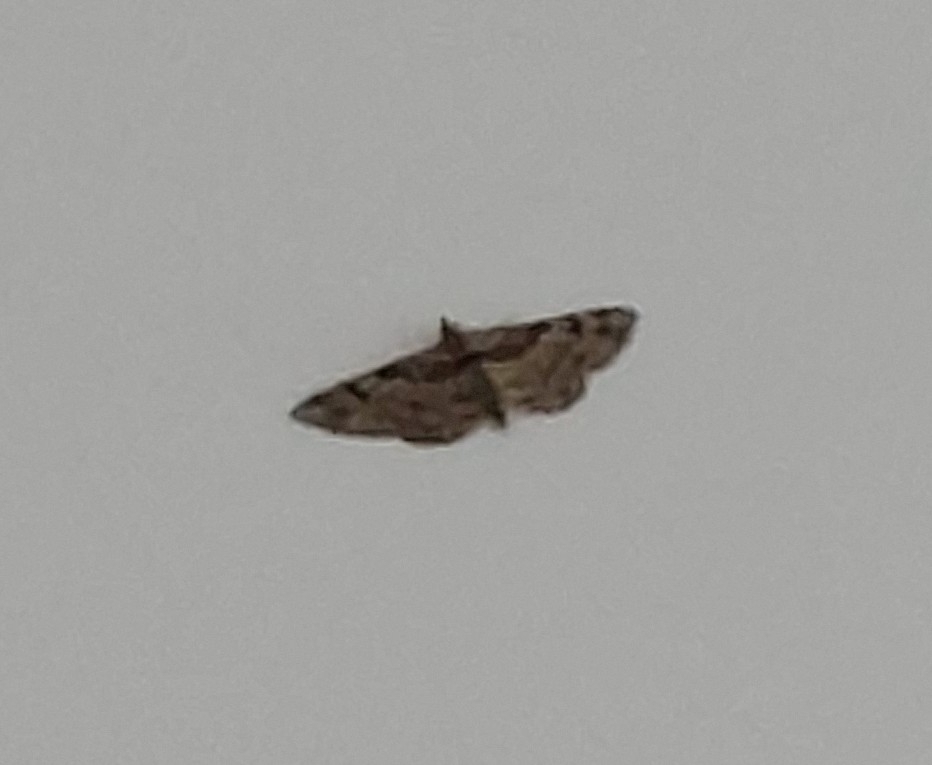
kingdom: Animalia
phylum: Arthropoda
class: Insecta
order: Lepidoptera
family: Geometridae
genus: Gymnoscelis
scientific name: Gymnoscelis rufifasciata
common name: Double-striped pug
